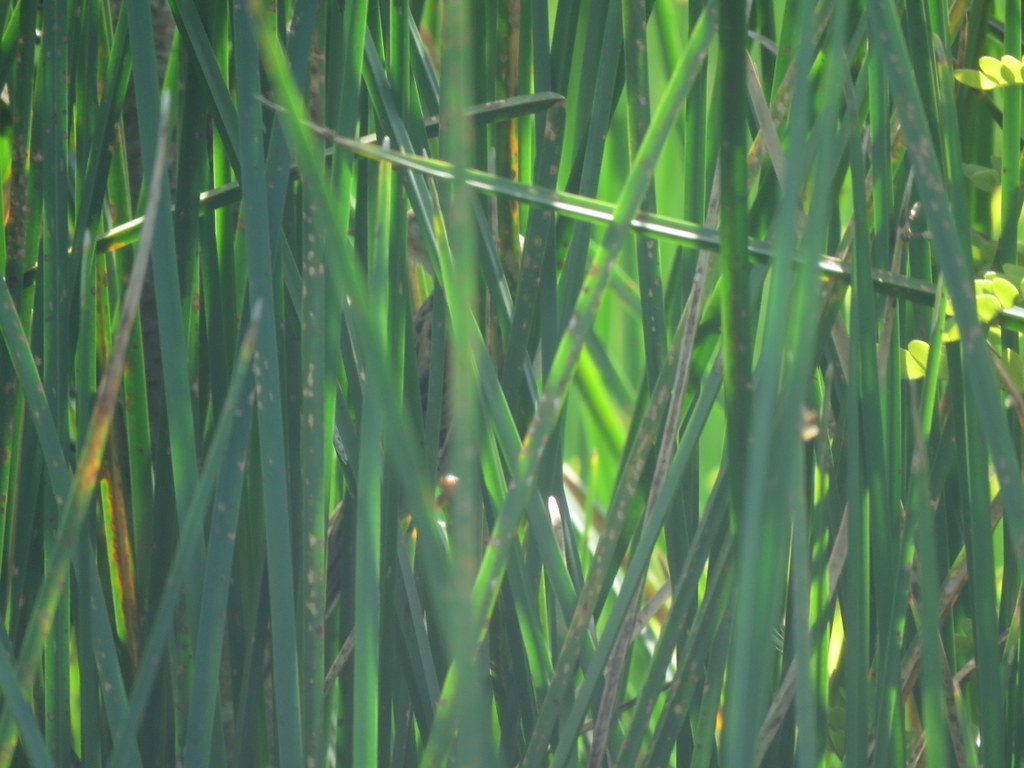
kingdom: Animalia
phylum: Chordata
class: Aves
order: Passeriformes
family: Furnariidae
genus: Spartonoica
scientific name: Spartonoica maluroides
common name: Bay-capped wren-spinetail
